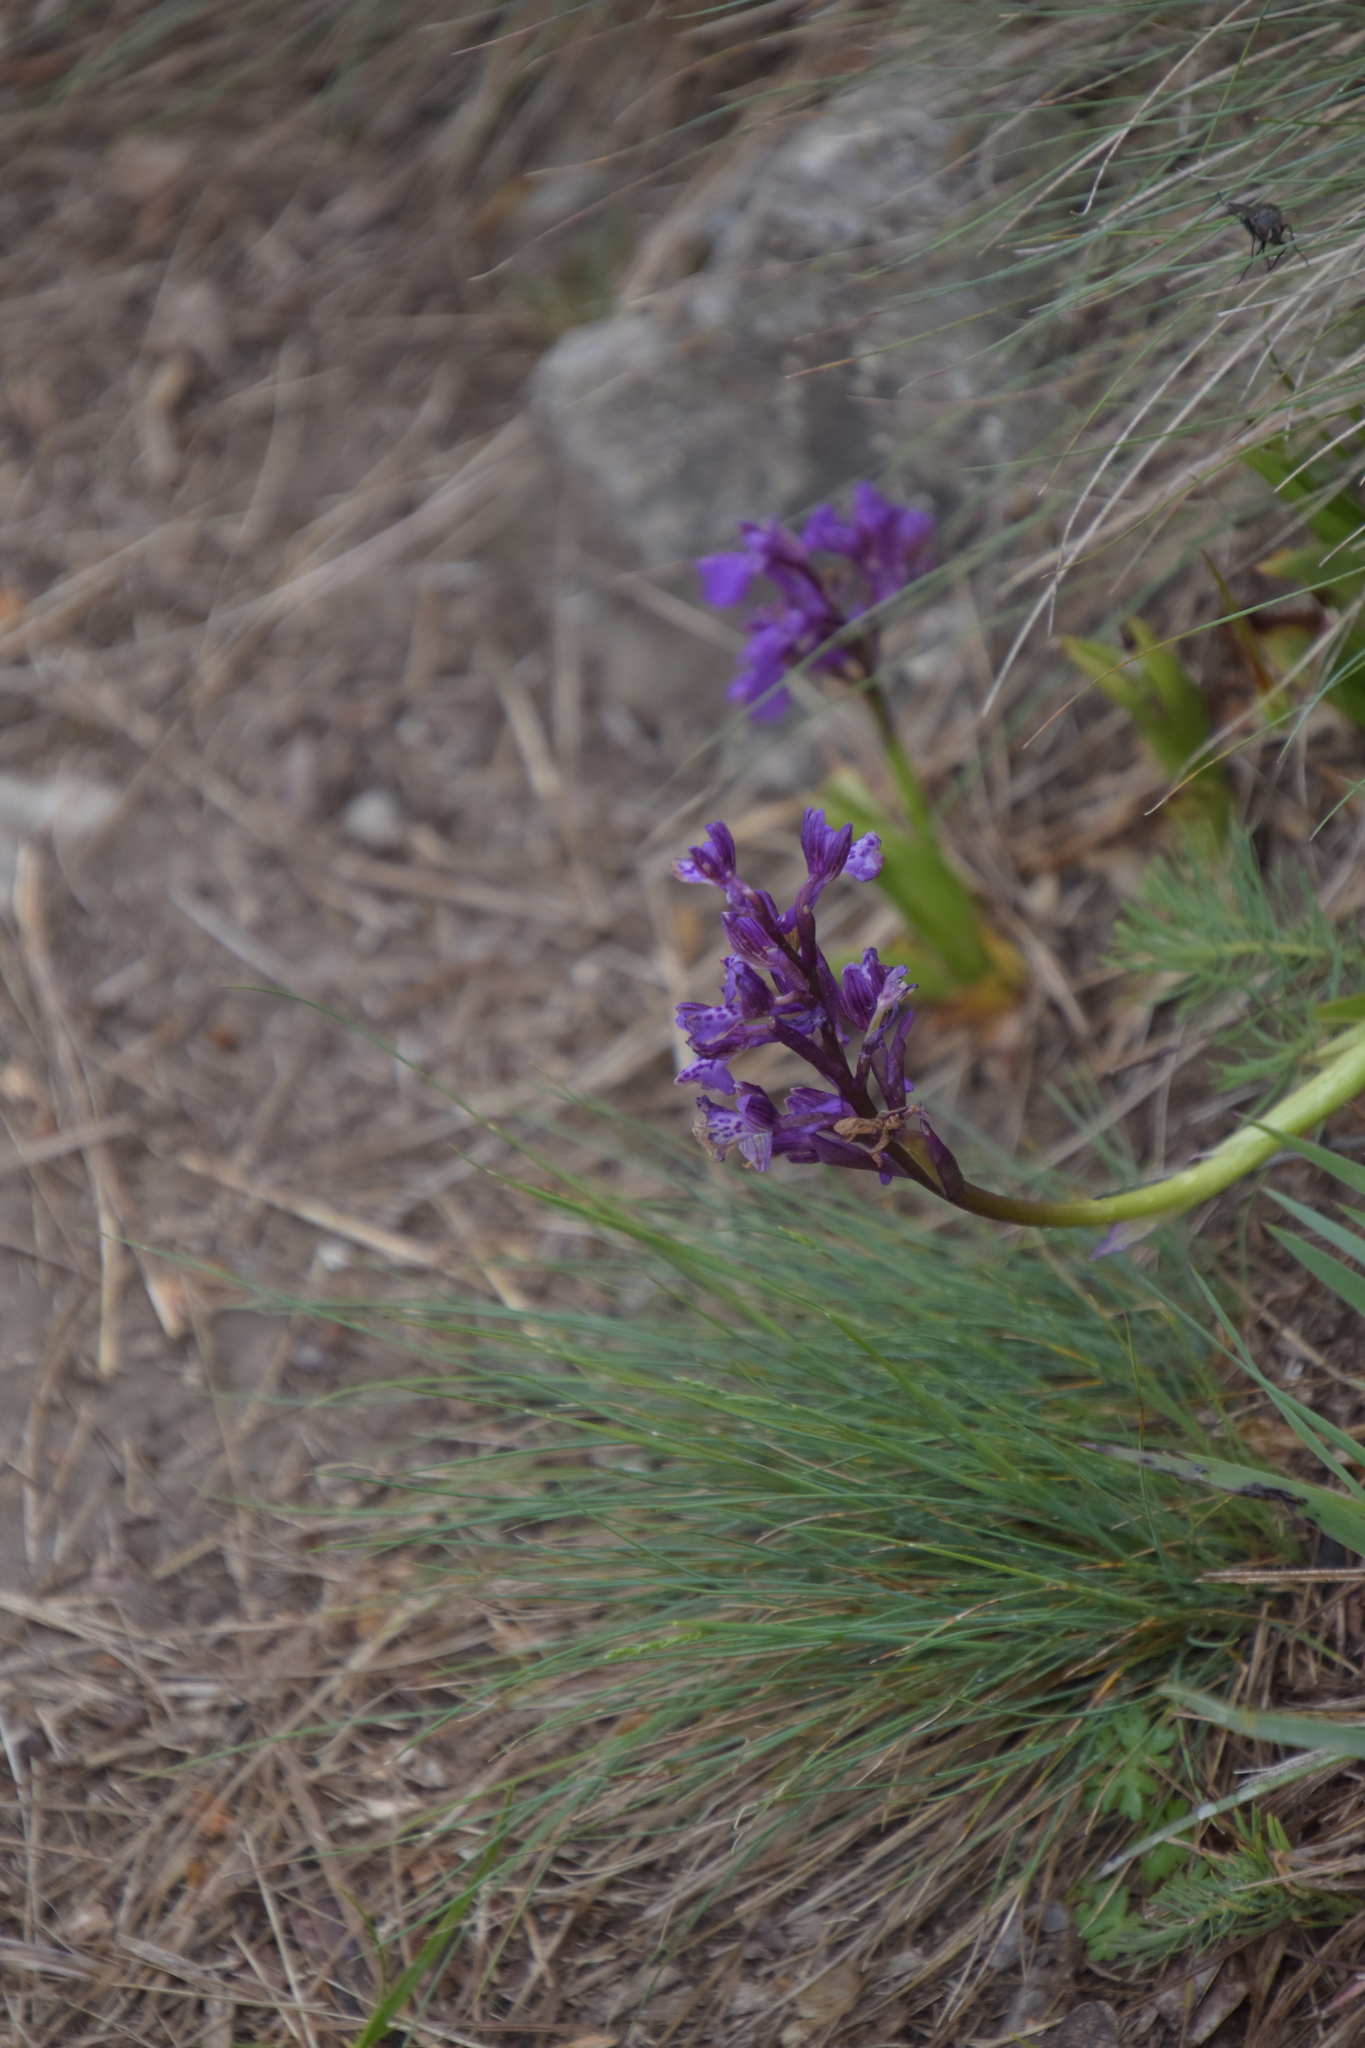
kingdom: Plantae
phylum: Tracheophyta
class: Liliopsida
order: Asparagales
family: Orchidaceae
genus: Anacamptis
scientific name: Anacamptis morio
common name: Green-winged orchid
